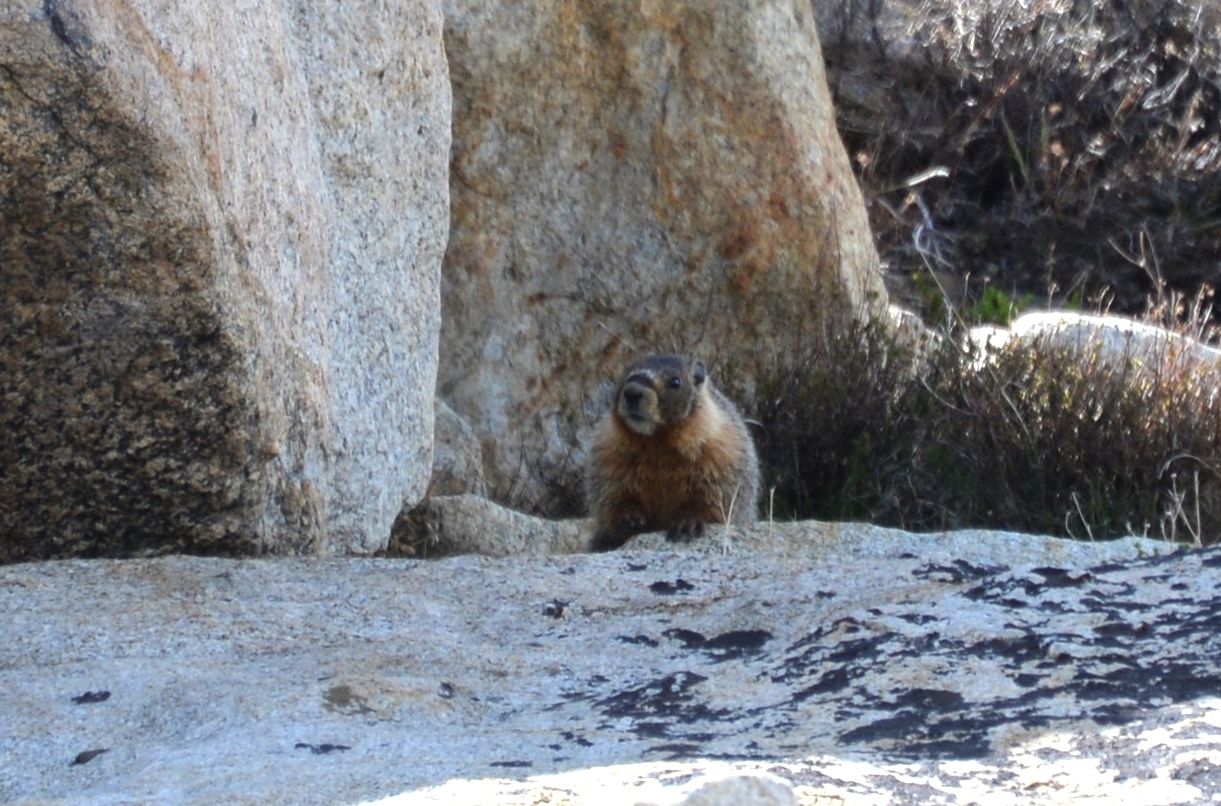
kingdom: Animalia
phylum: Chordata
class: Mammalia
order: Rodentia
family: Sciuridae
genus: Marmota
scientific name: Marmota flaviventris
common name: Yellow-bellied marmot
